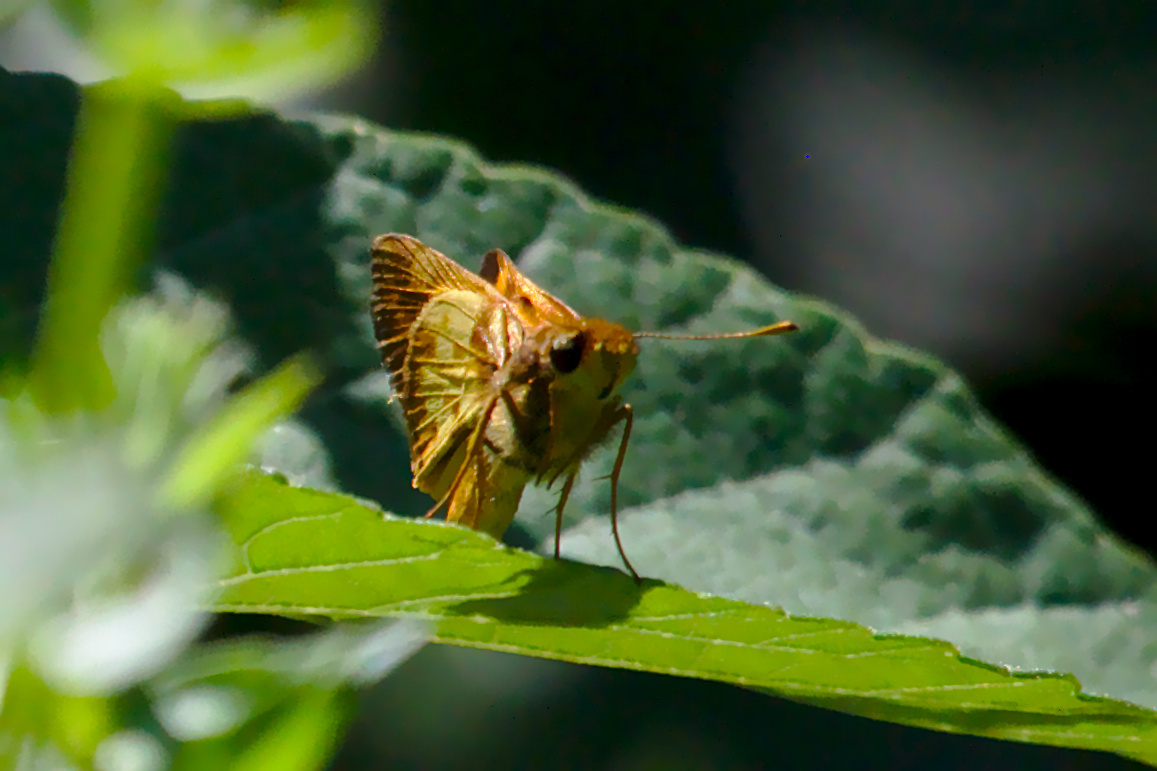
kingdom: Animalia
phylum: Arthropoda
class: Insecta
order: Lepidoptera
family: Hesperiidae
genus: Lon
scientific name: Lon zabulon
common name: Zabulon skipper
